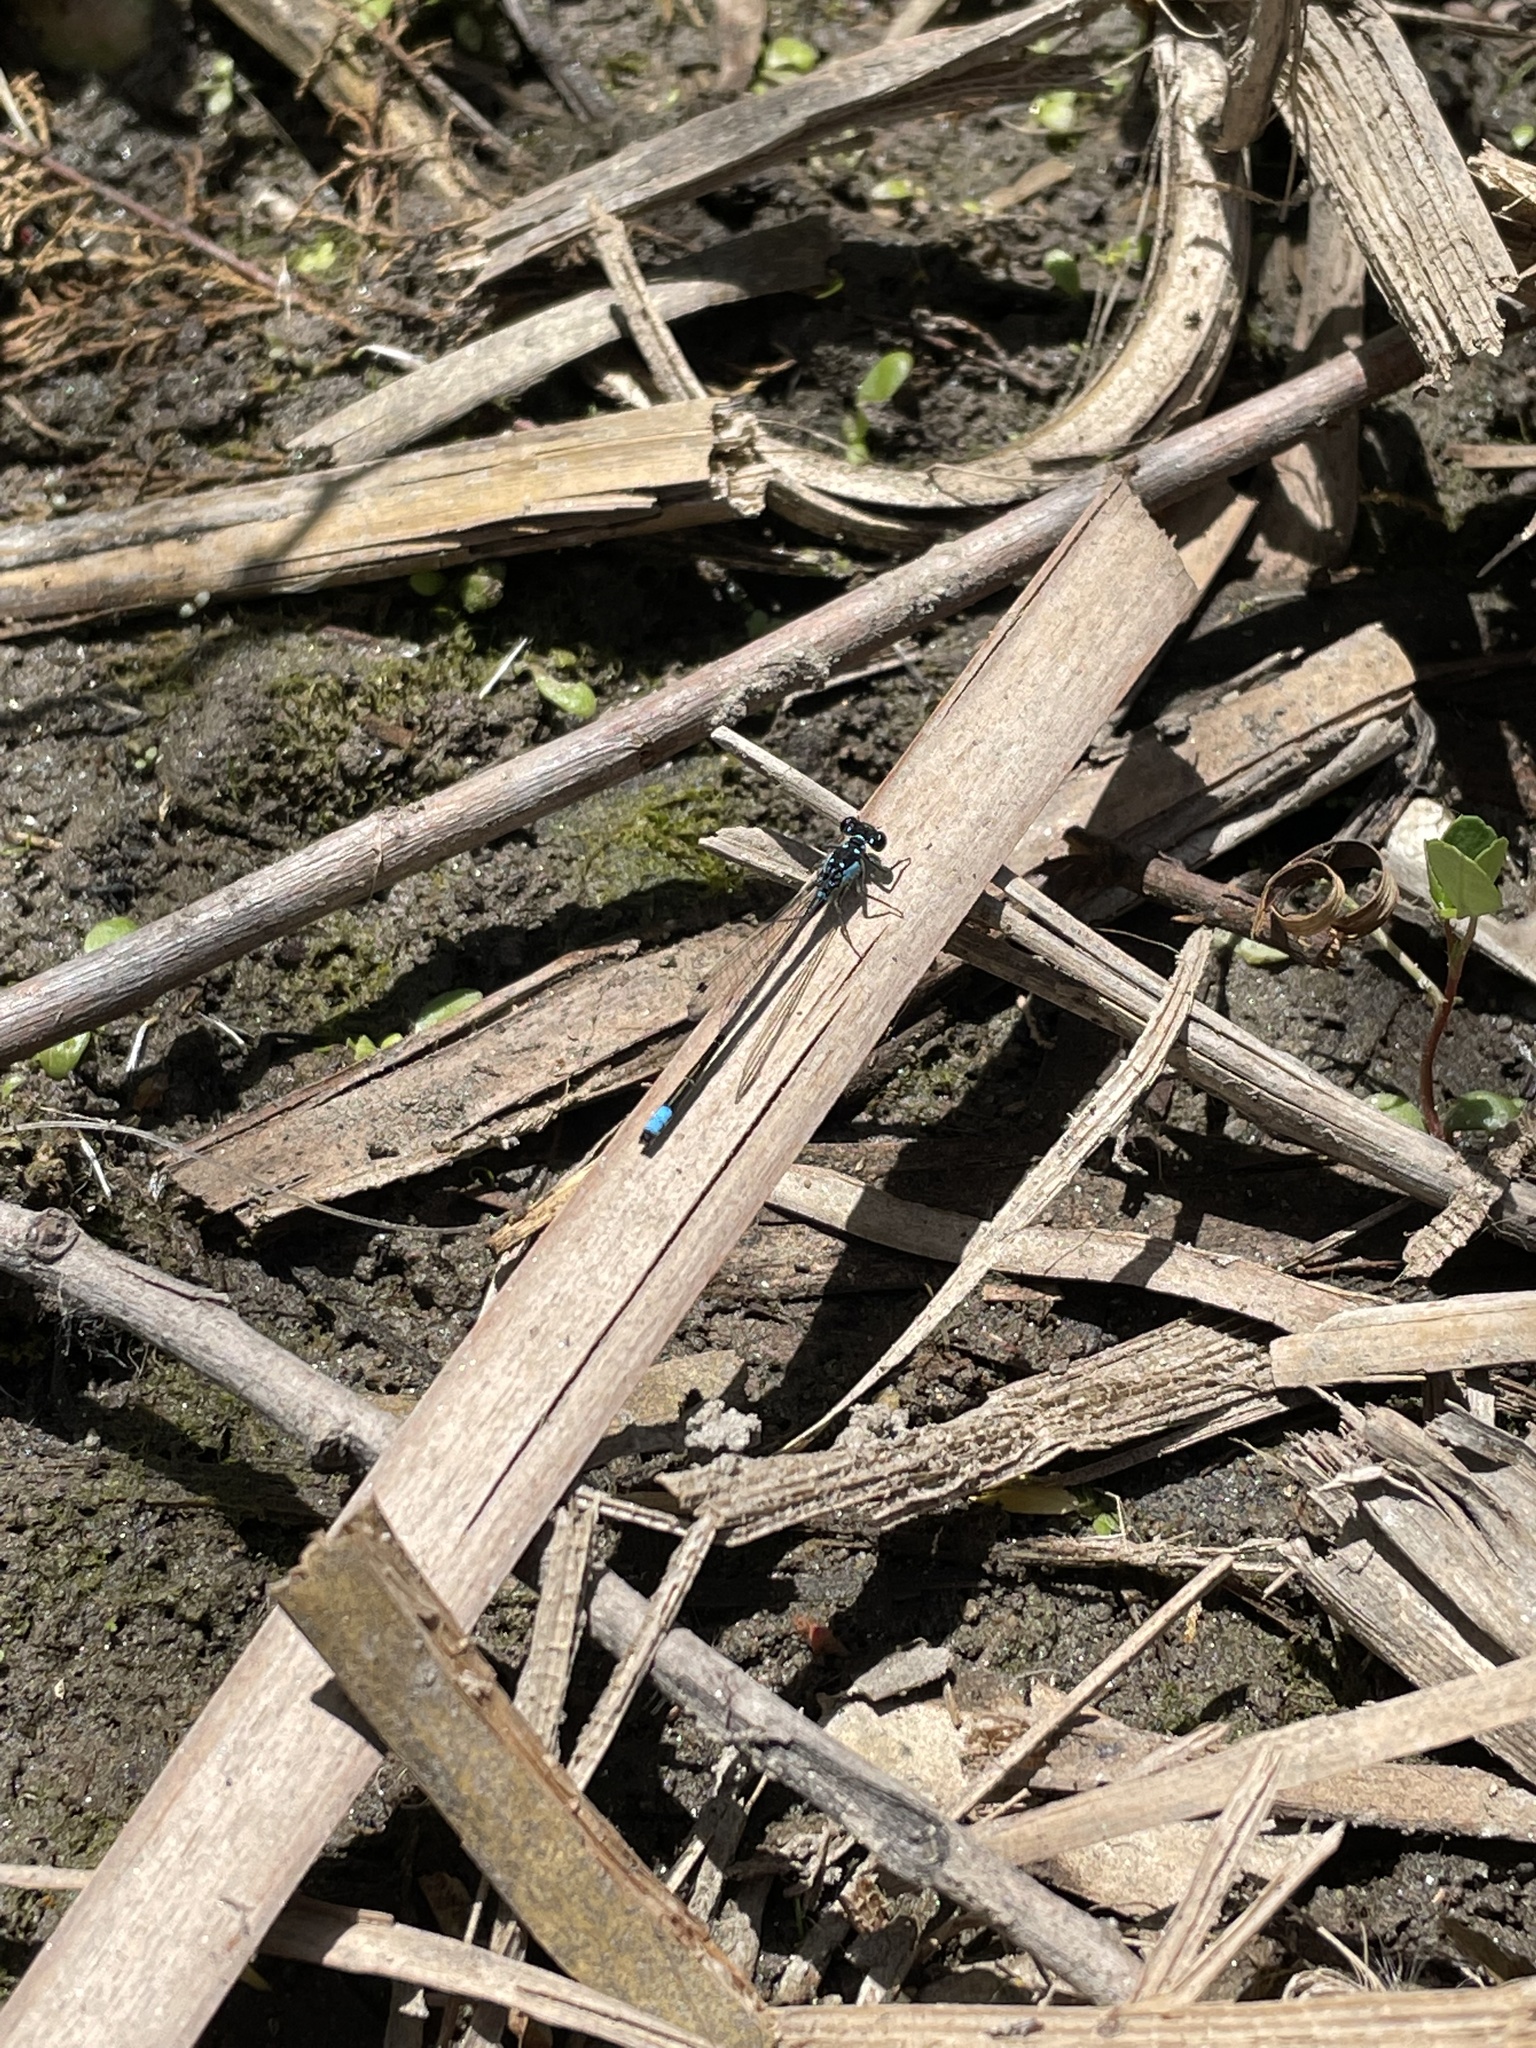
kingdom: Animalia
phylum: Arthropoda
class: Insecta
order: Odonata
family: Coenagrionidae
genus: Ischnura
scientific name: Ischnura cervula
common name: Pacific forktail
